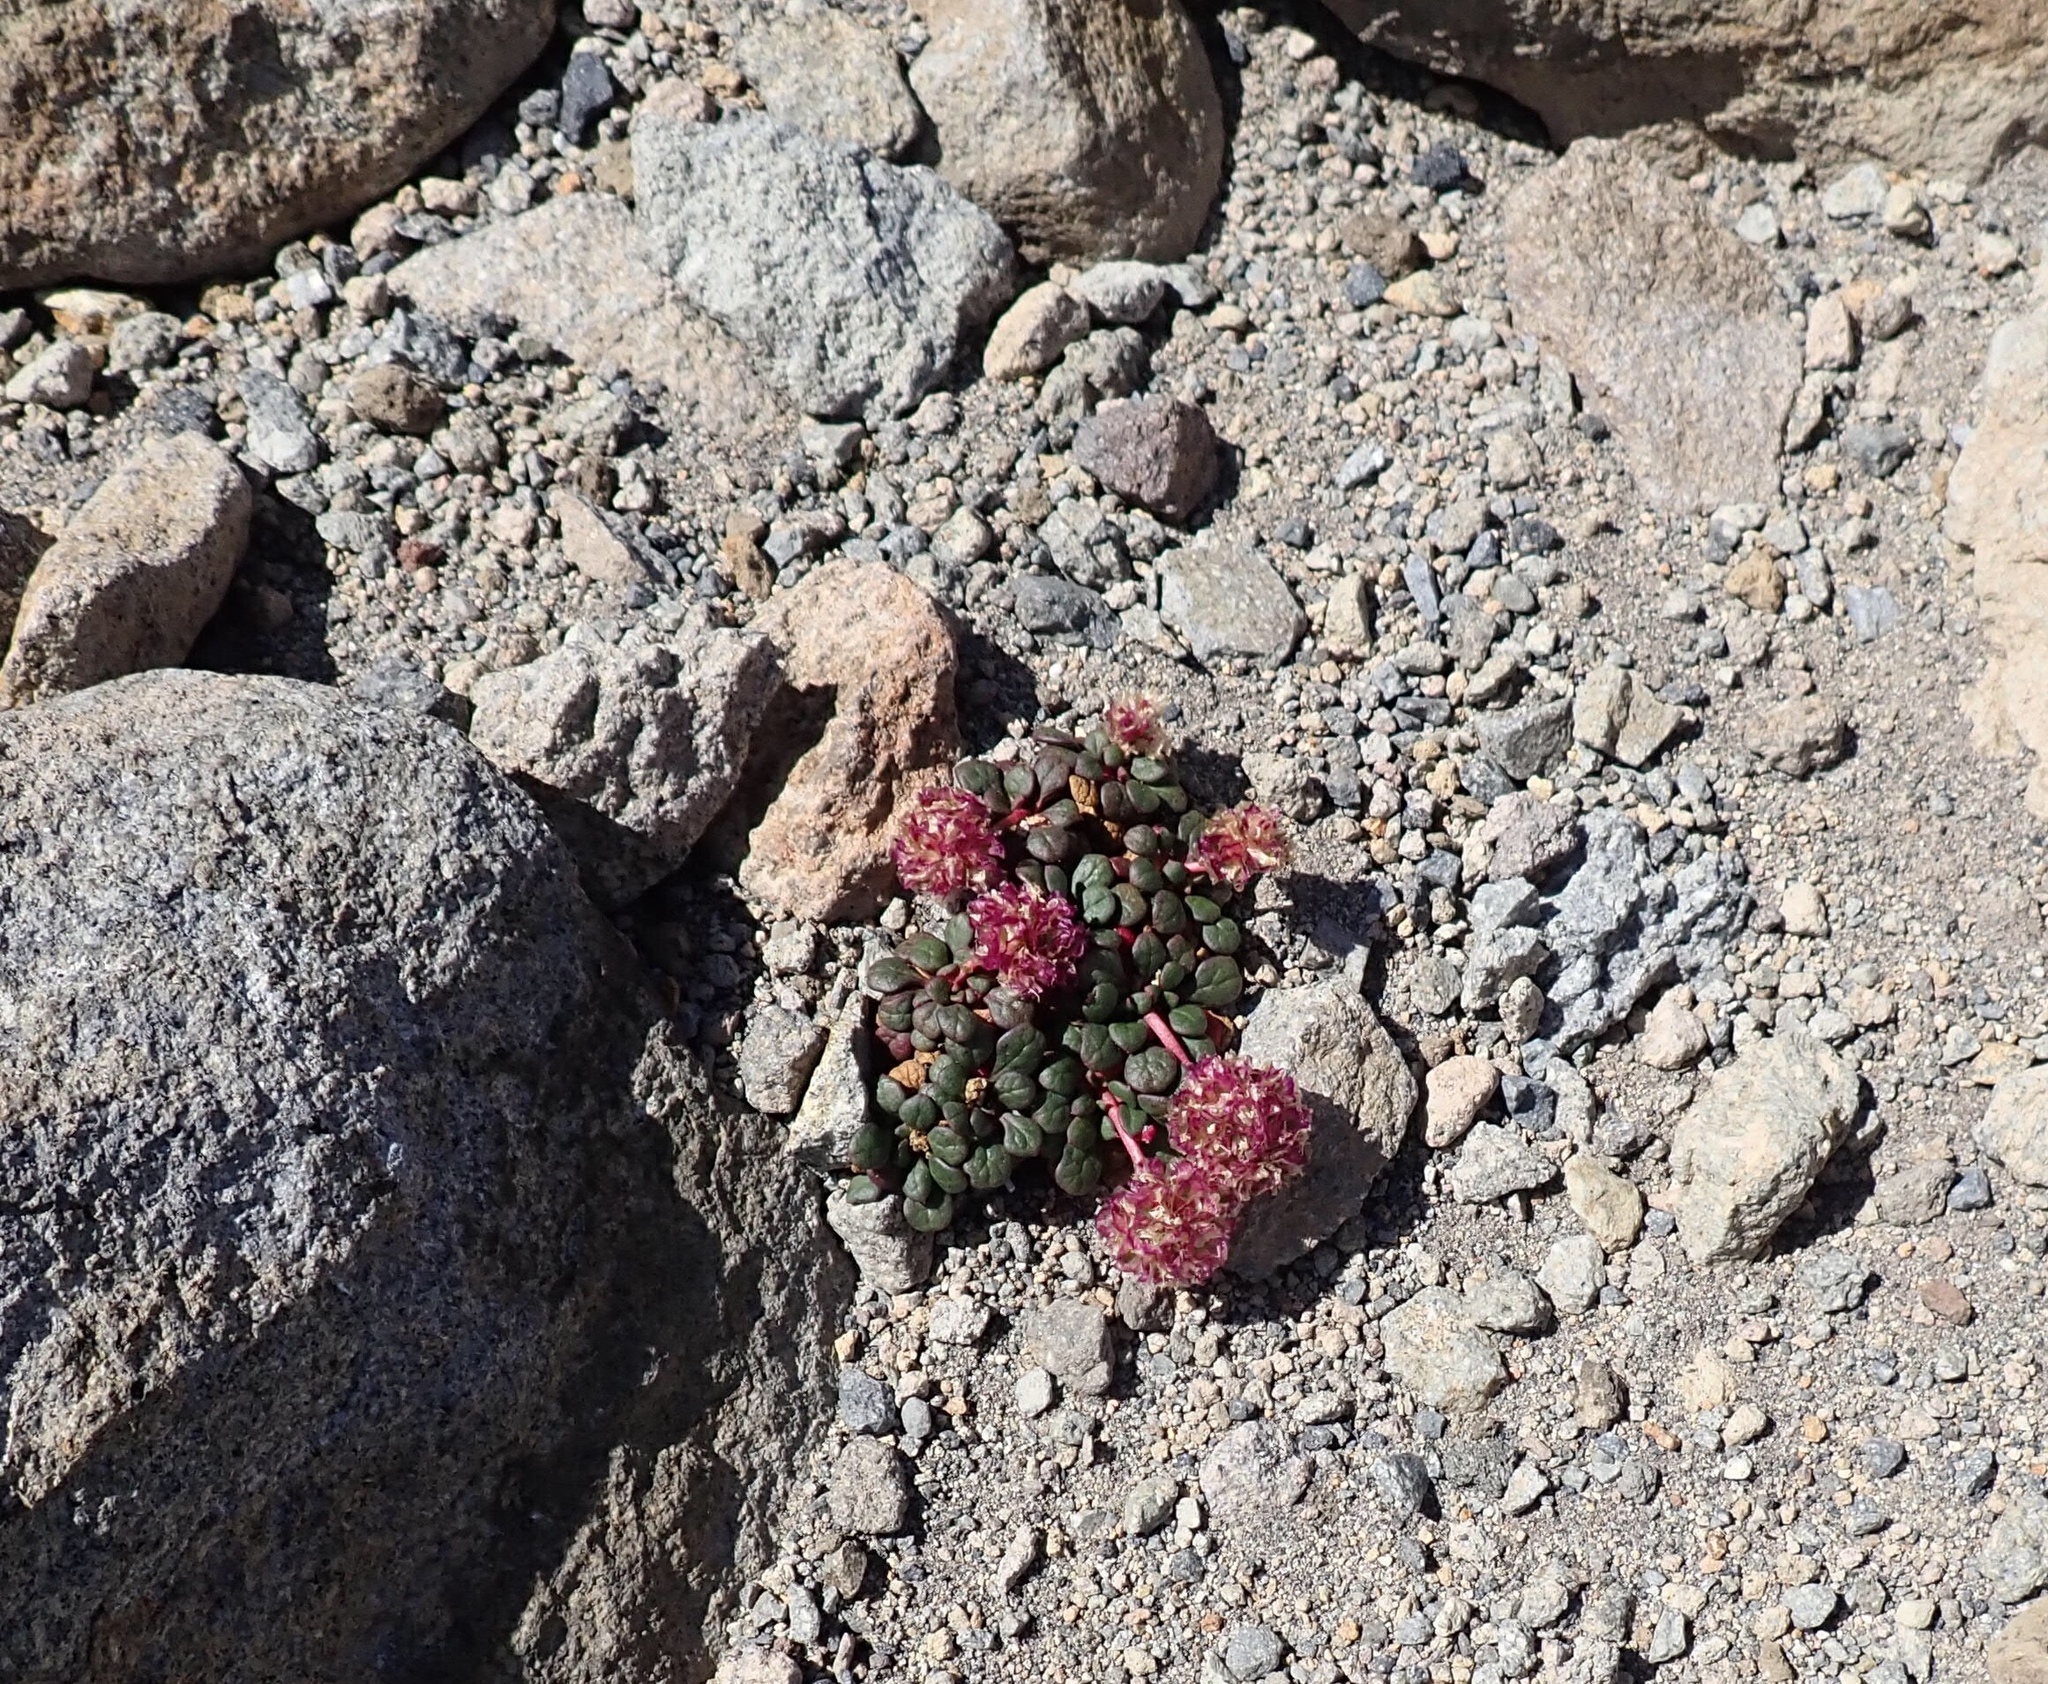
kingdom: Plantae
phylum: Tracheophyta
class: Magnoliopsida
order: Caryophyllales
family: Montiaceae
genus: Calyptridium
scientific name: Calyptridium umbellatum
